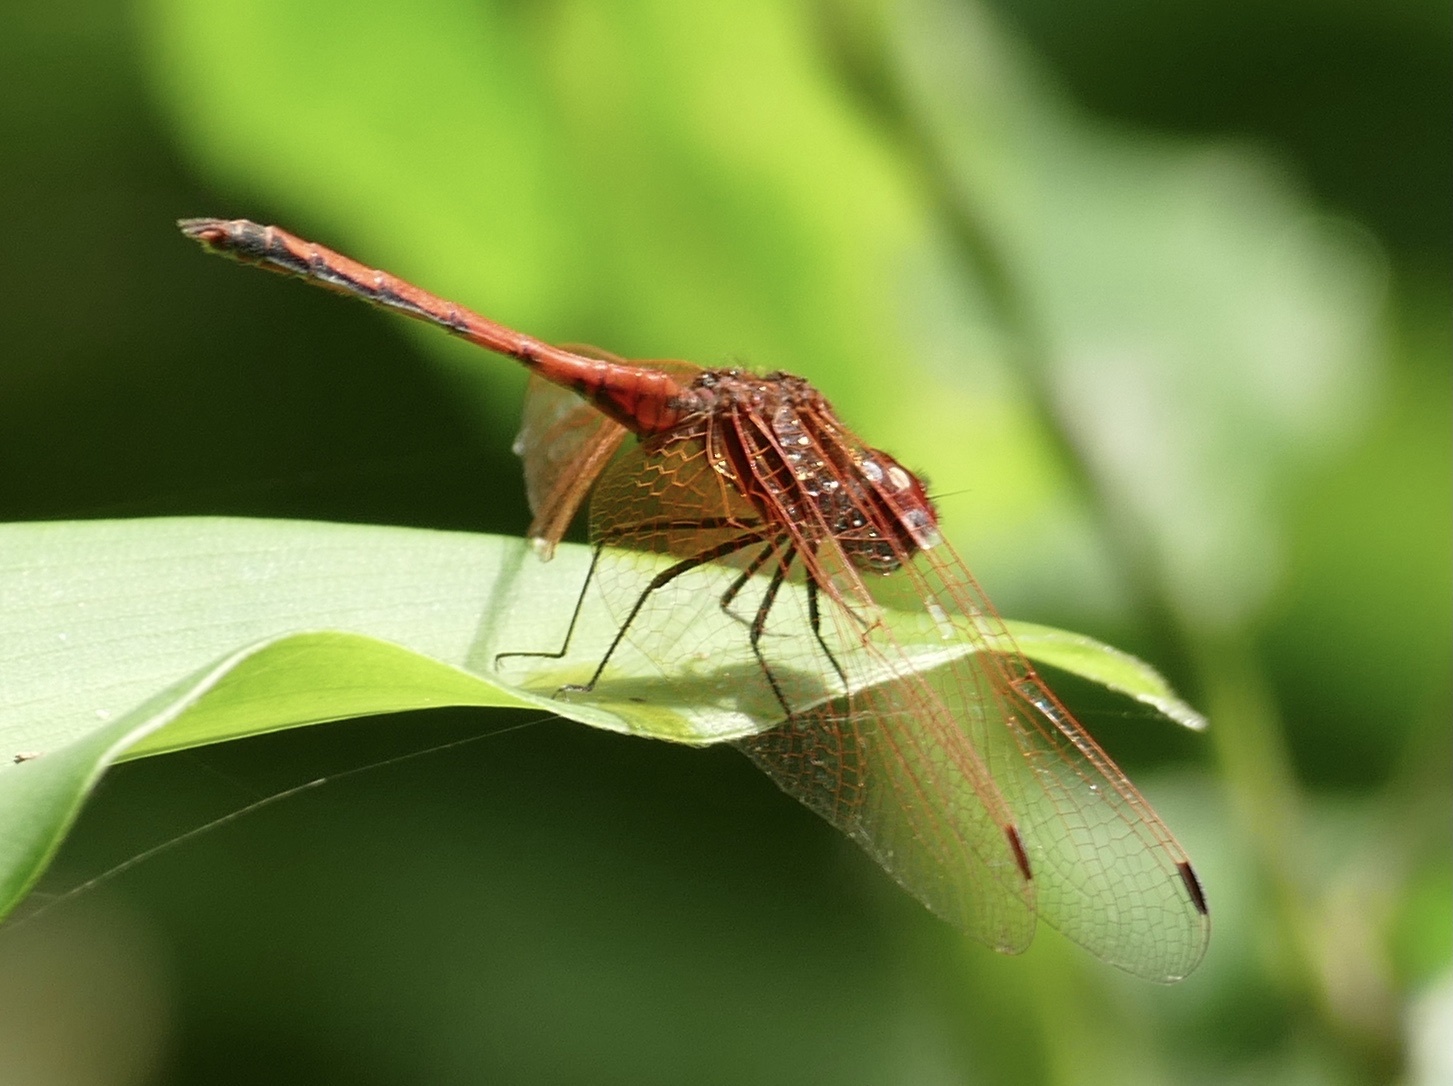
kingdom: Animalia
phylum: Arthropoda
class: Insecta
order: Odonata
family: Libellulidae
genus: Trithemis
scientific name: Trithemis arteriosa
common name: Red-veined dropwing
